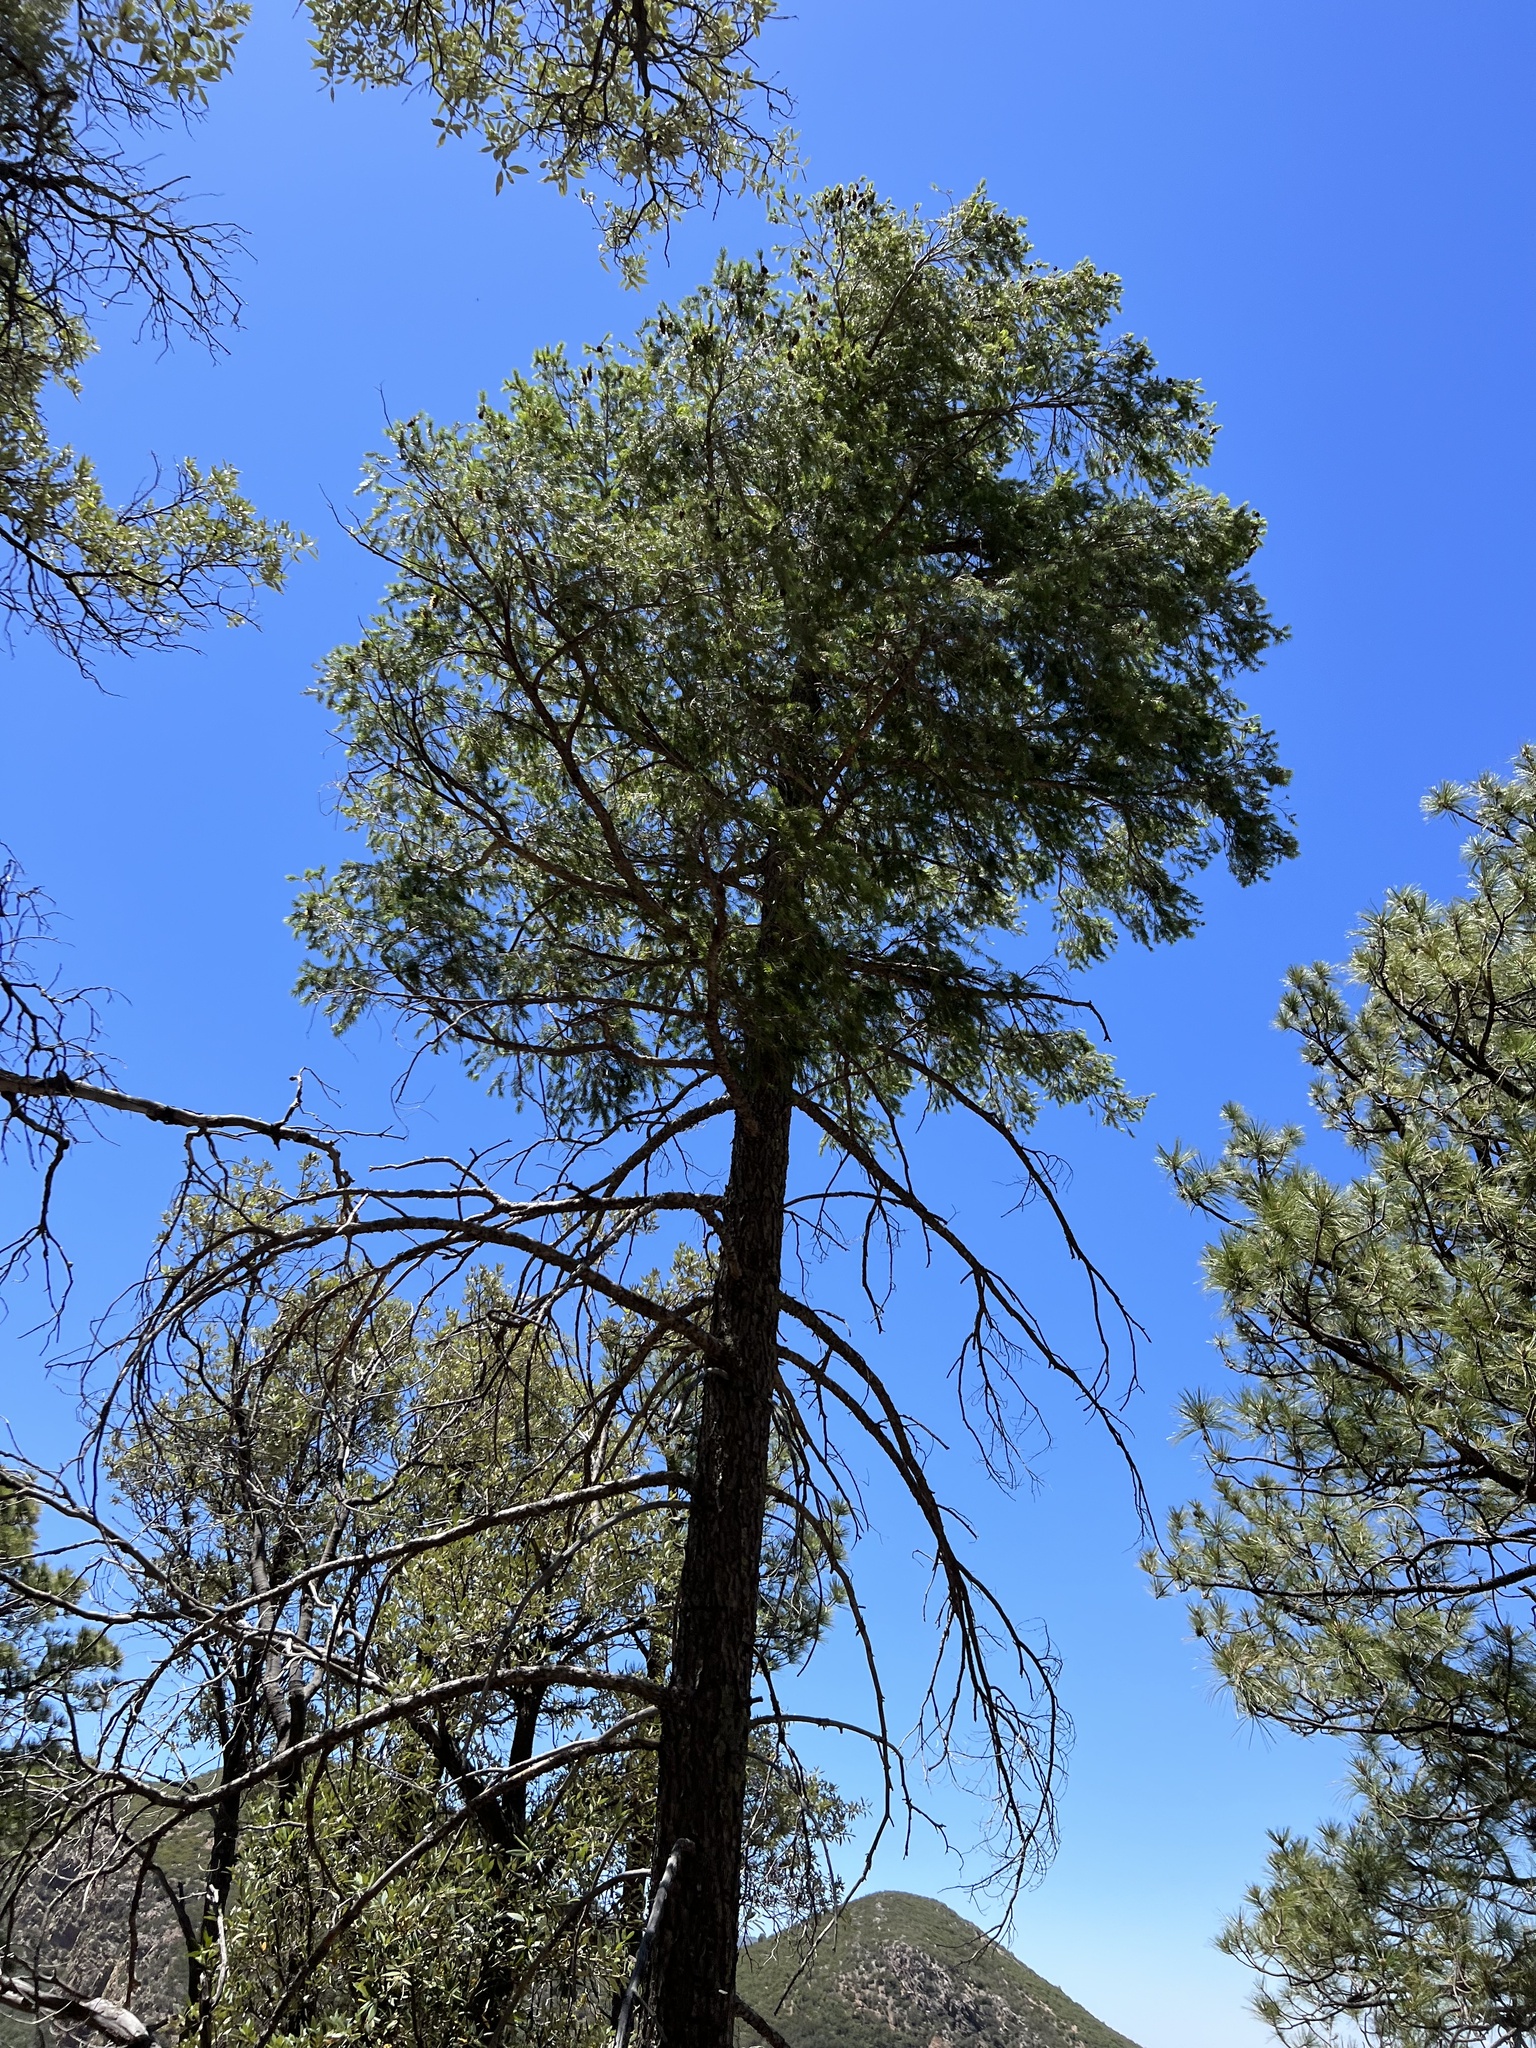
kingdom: Plantae
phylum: Tracheophyta
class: Pinopsida
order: Pinales
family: Pinaceae
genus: Pinus
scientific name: Pinus strobiformis
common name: Southwestern white pine
